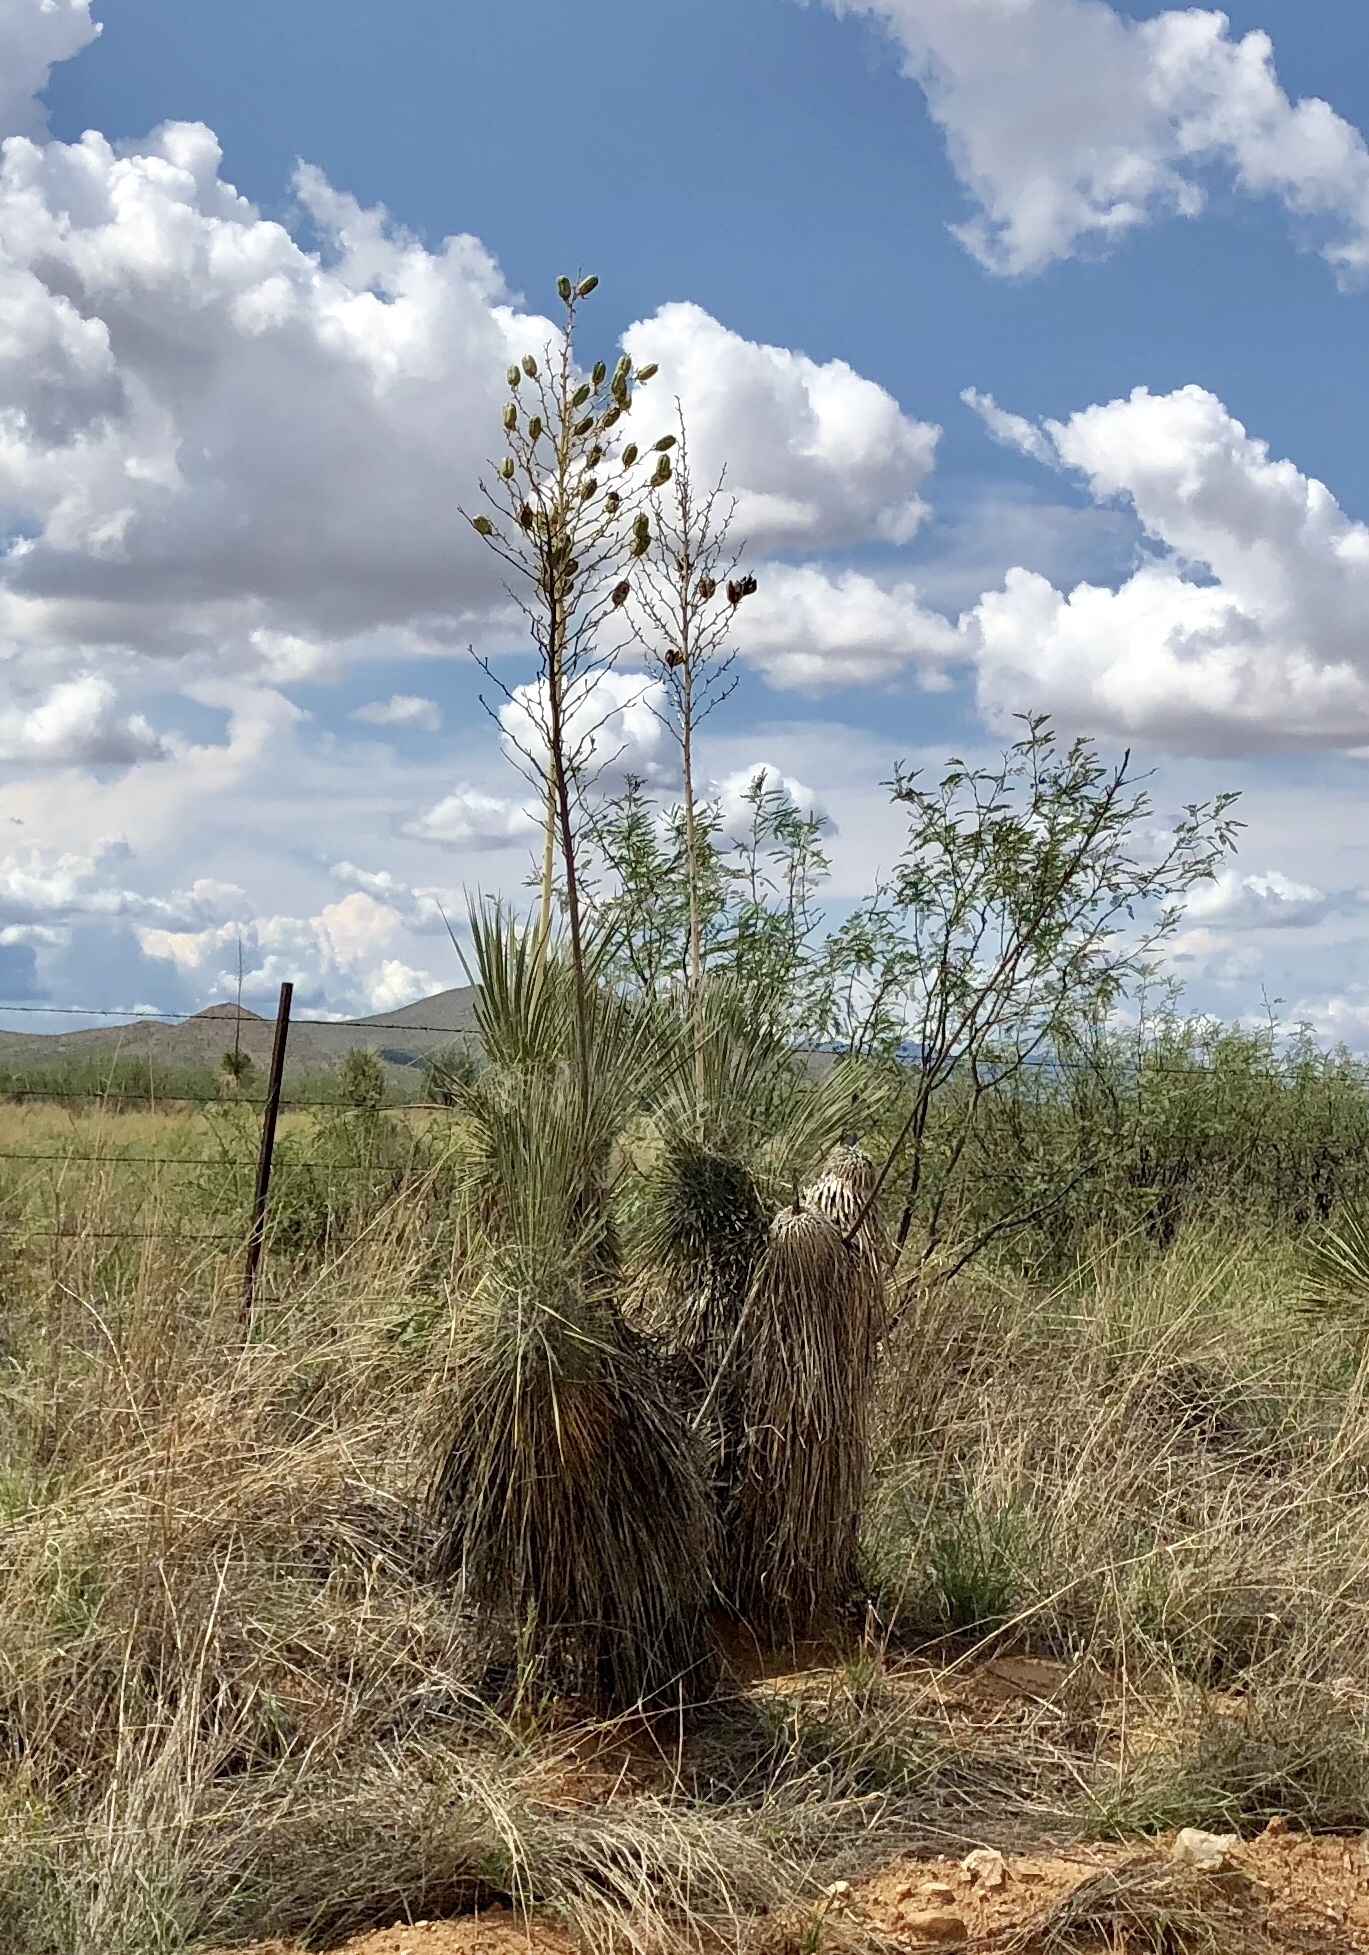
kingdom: Plantae
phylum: Tracheophyta
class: Liliopsida
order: Asparagales
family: Asparagaceae
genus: Yucca
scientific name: Yucca elata
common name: Palmella
